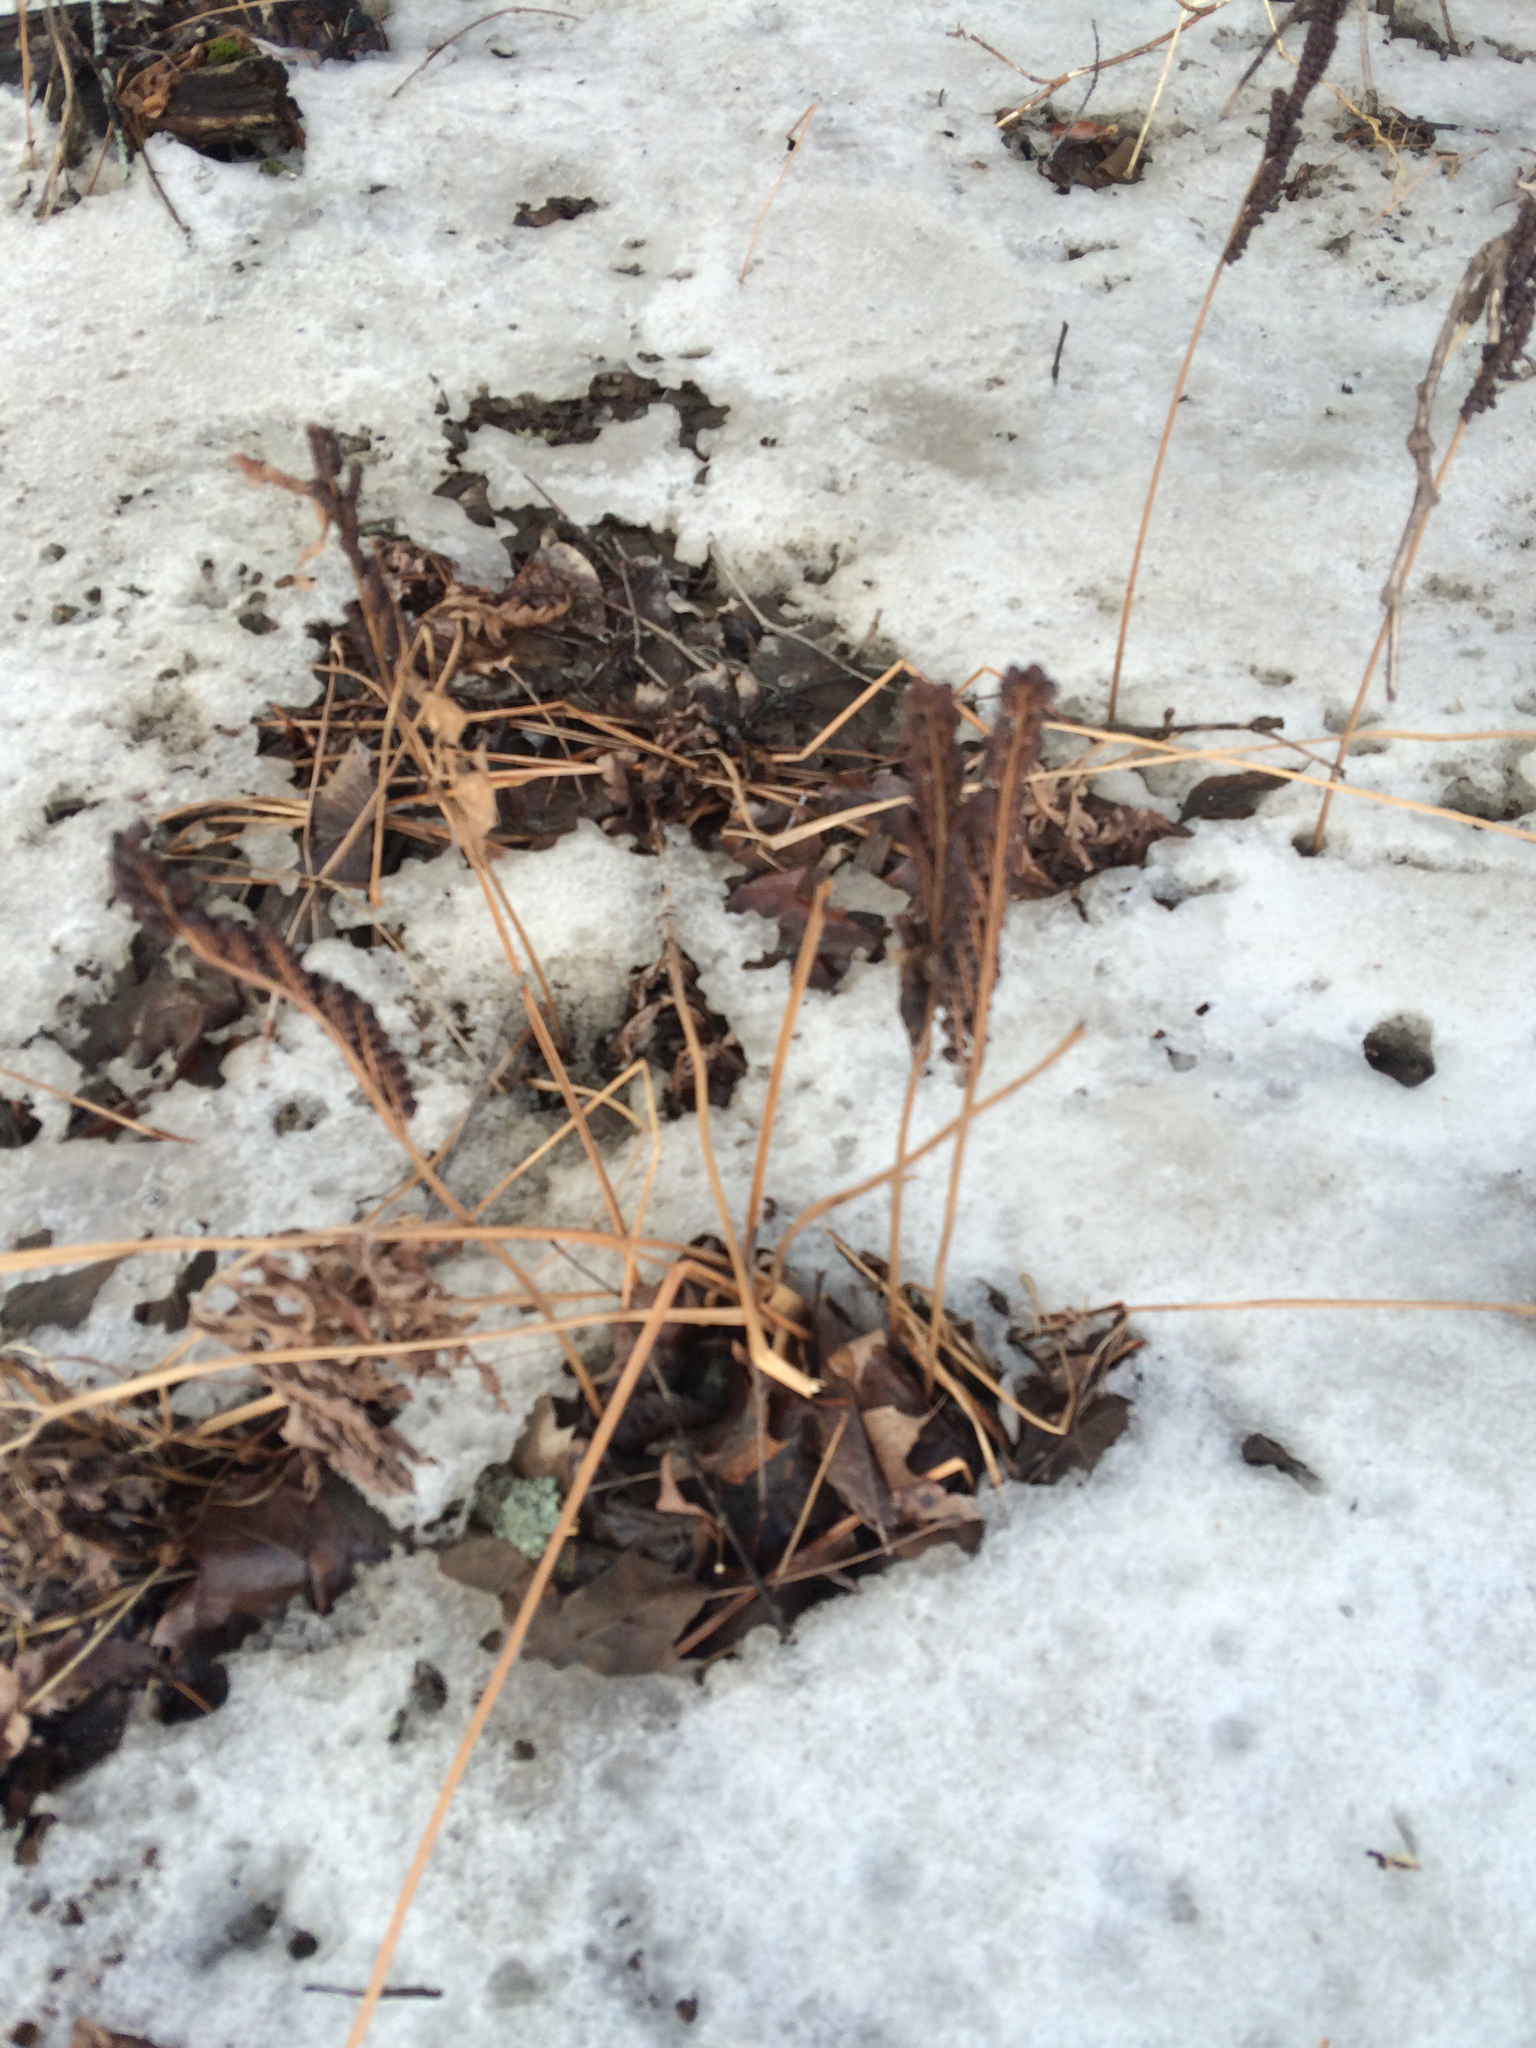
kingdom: Plantae
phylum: Tracheophyta
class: Polypodiopsida
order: Polypodiales
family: Onocleaceae
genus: Onoclea
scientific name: Onoclea sensibilis
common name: Sensitive fern
